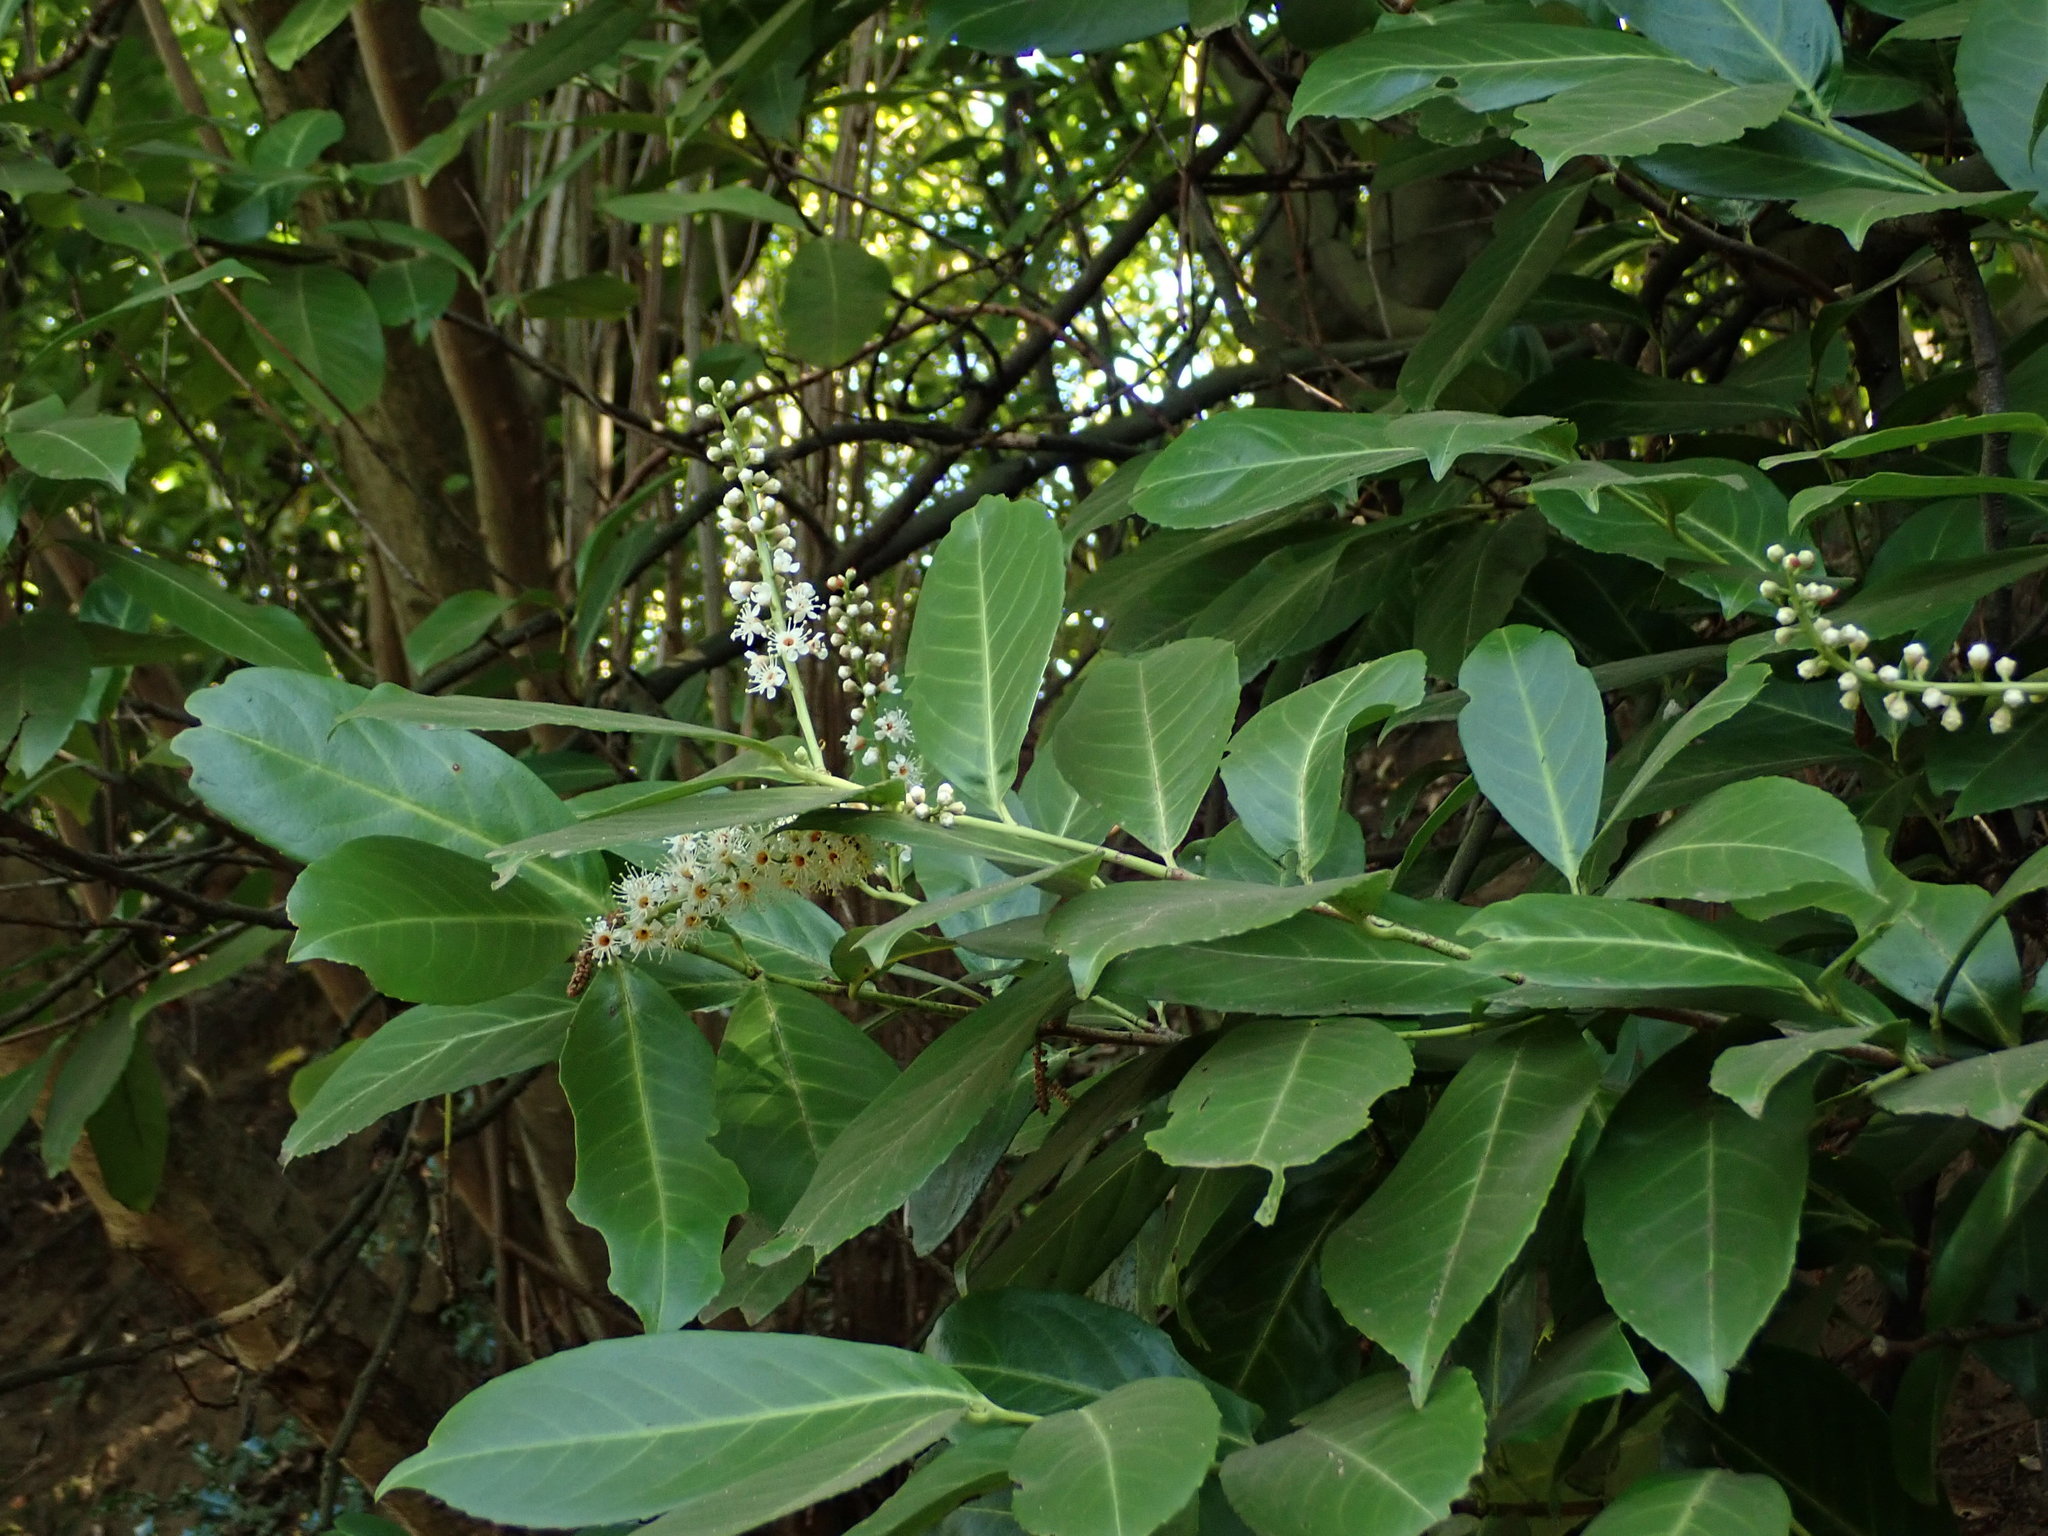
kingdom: Plantae
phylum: Tracheophyta
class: Magnoliopsida
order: Rosales
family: Rosaceae
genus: Prunus
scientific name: Prunus laurocerasus
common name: Cherry laurel
